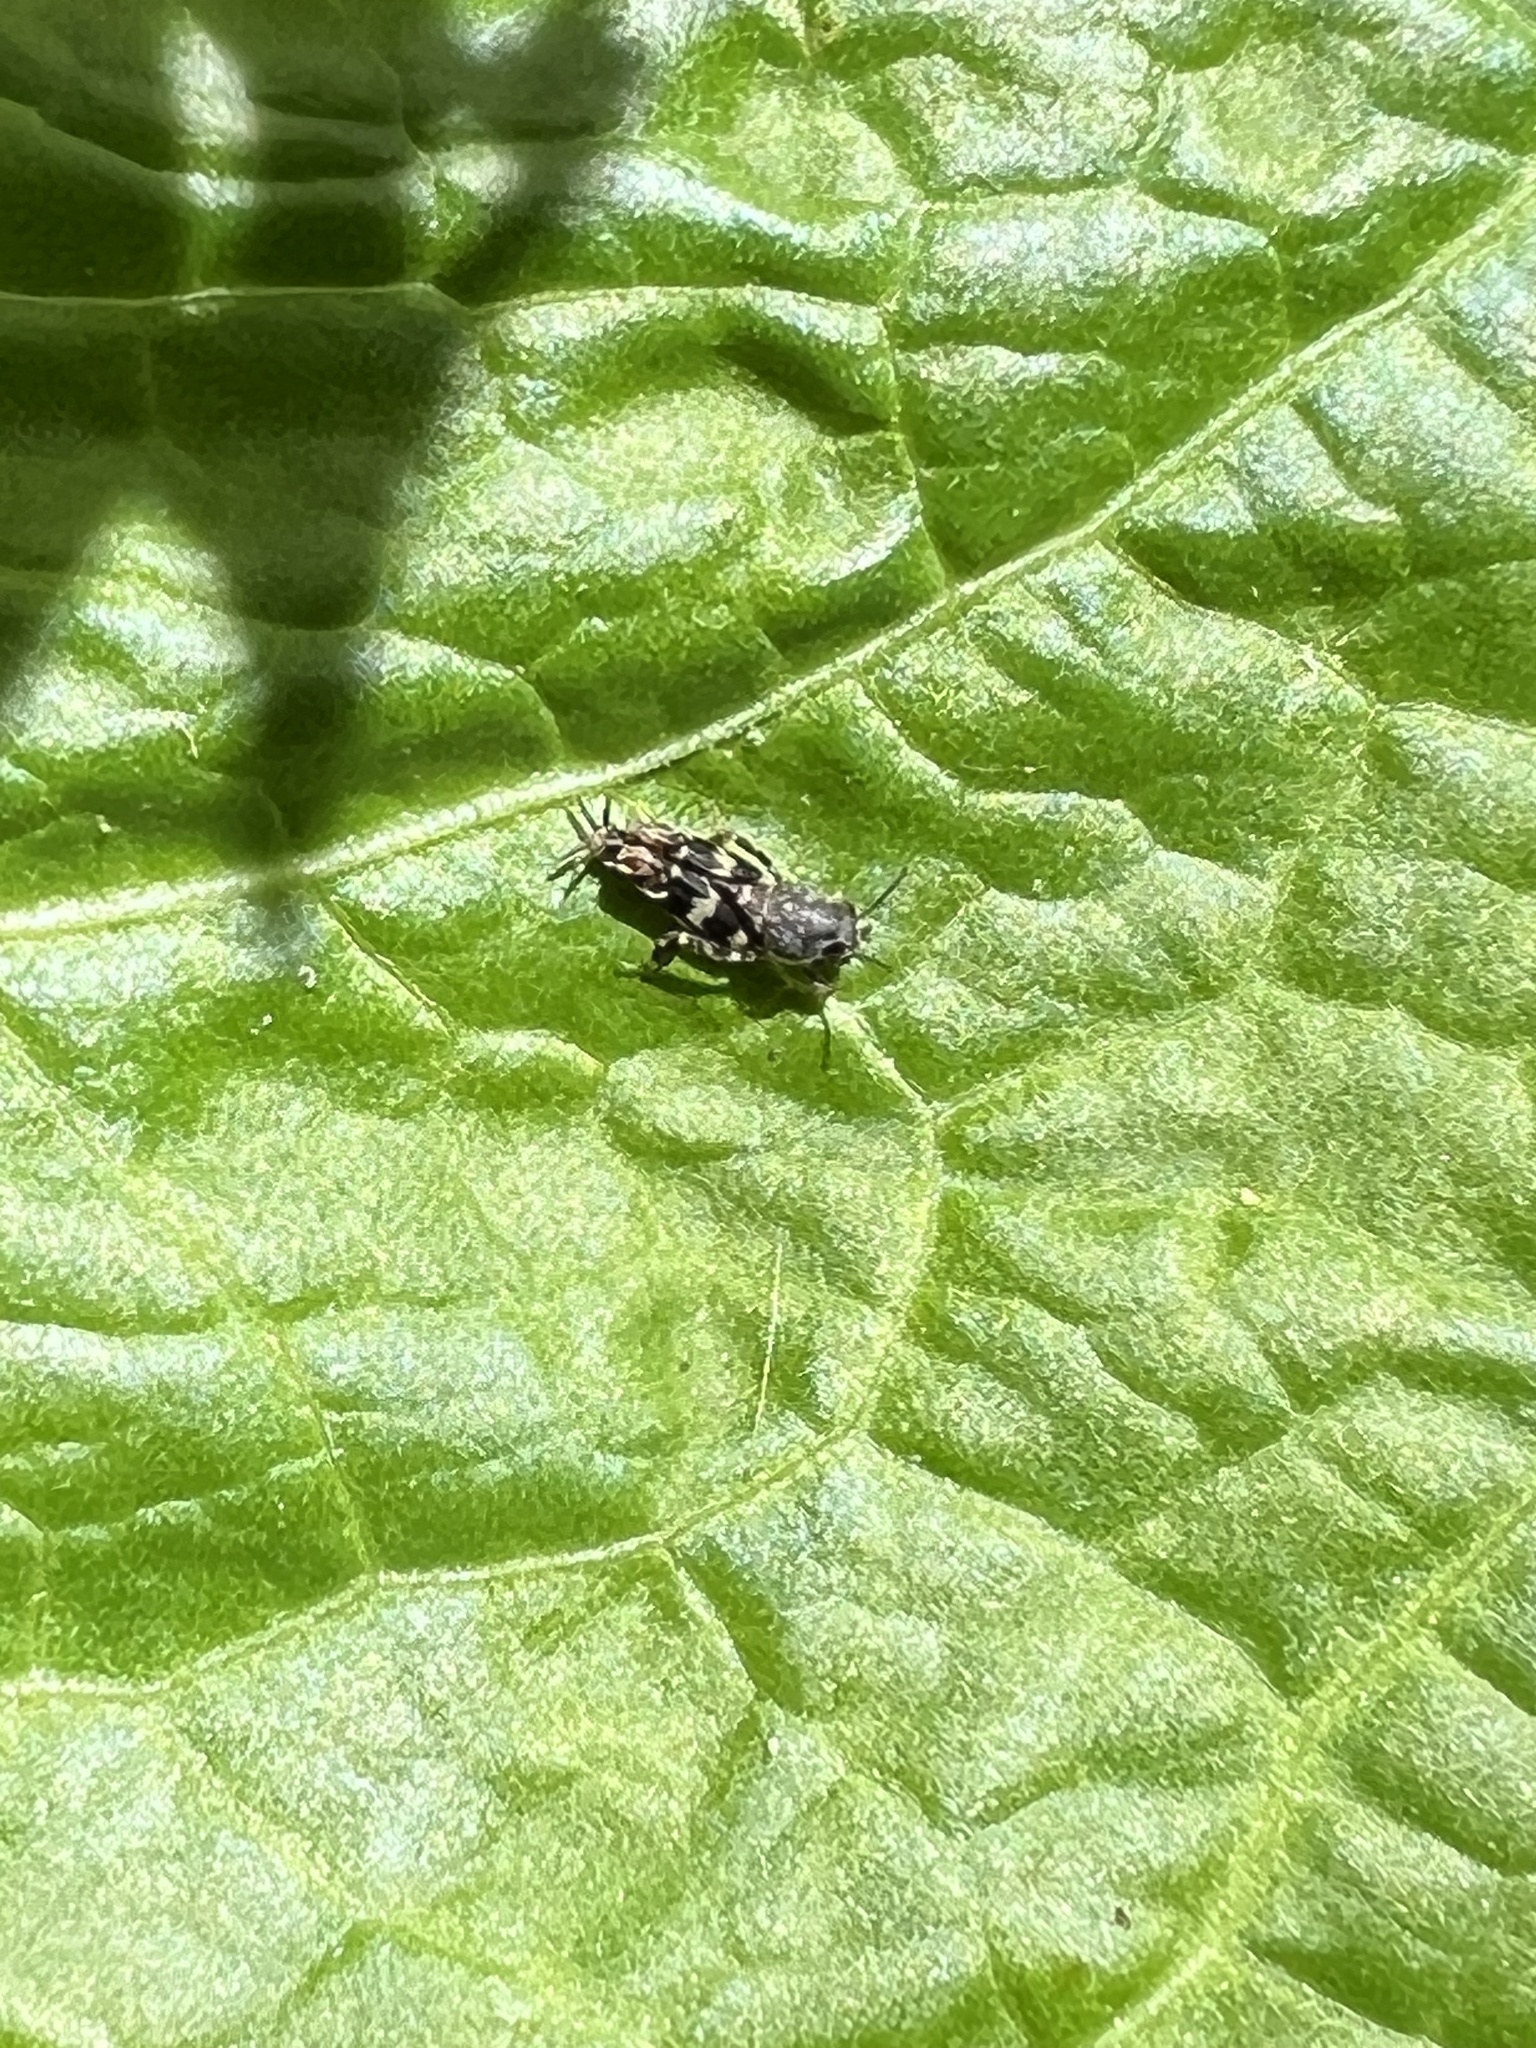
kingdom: Animalia
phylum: Arthropoda
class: Insecta
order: Orthoptera
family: Tridactylidae
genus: Ellipes
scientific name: Ellipes minuta
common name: Minute pygmy locust
